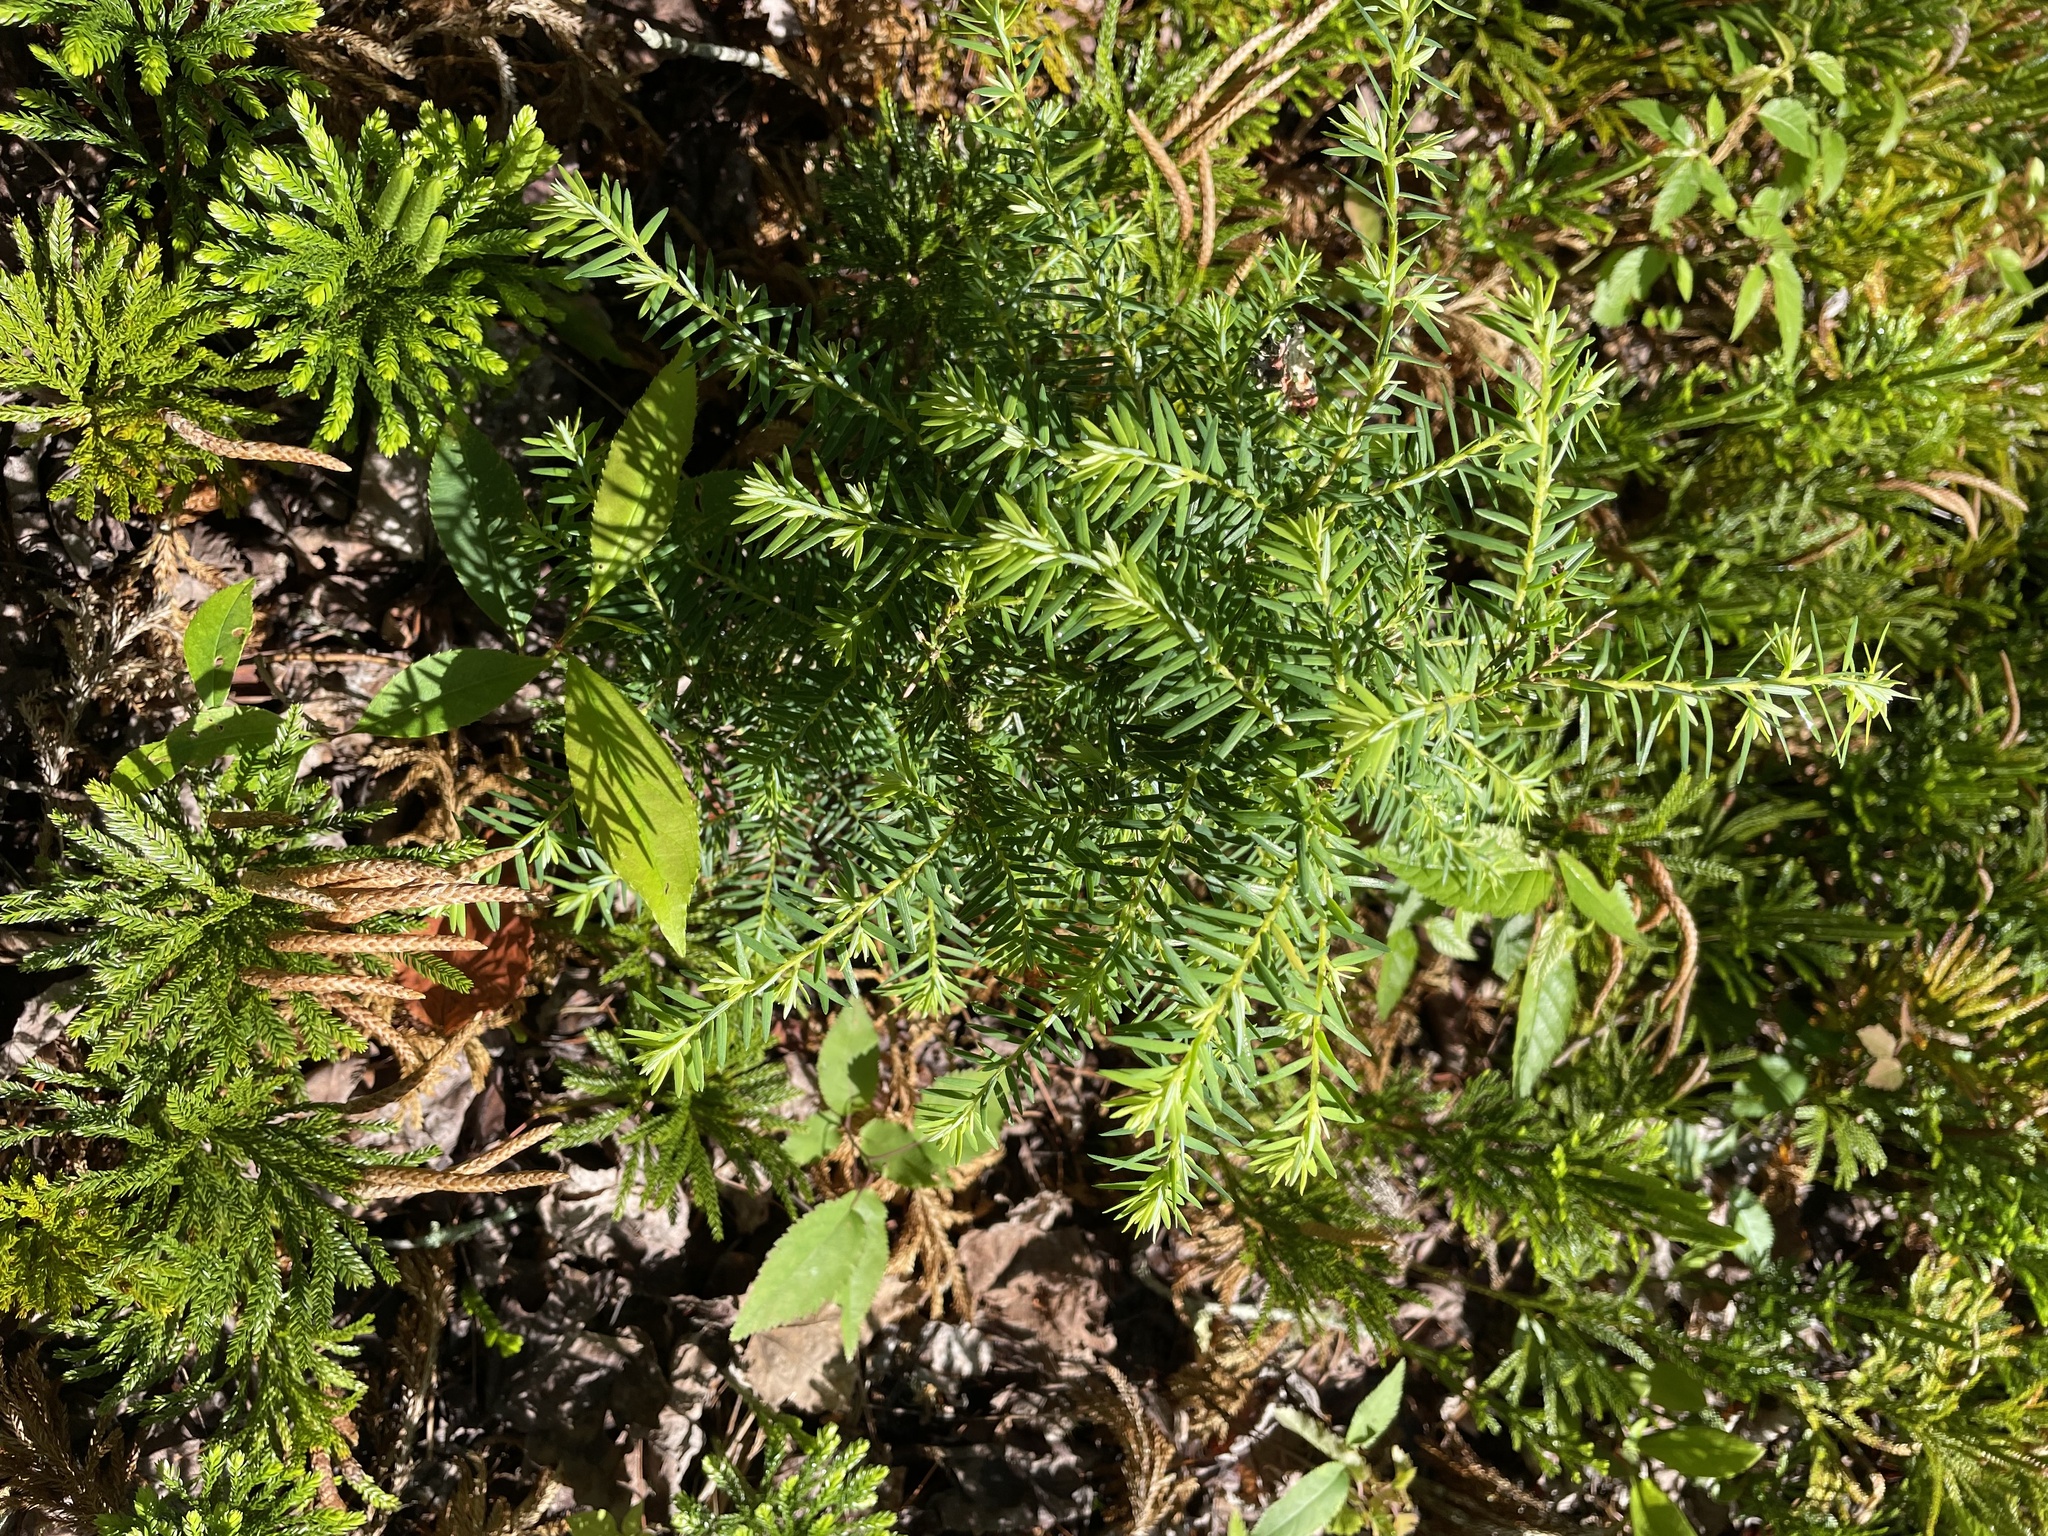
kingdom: Plantae
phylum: Tracheophyta
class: Pinopsida
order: Pinales
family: Pinaceae
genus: Tsuga
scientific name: Tsuga canadensis
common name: Eastern hemlock
